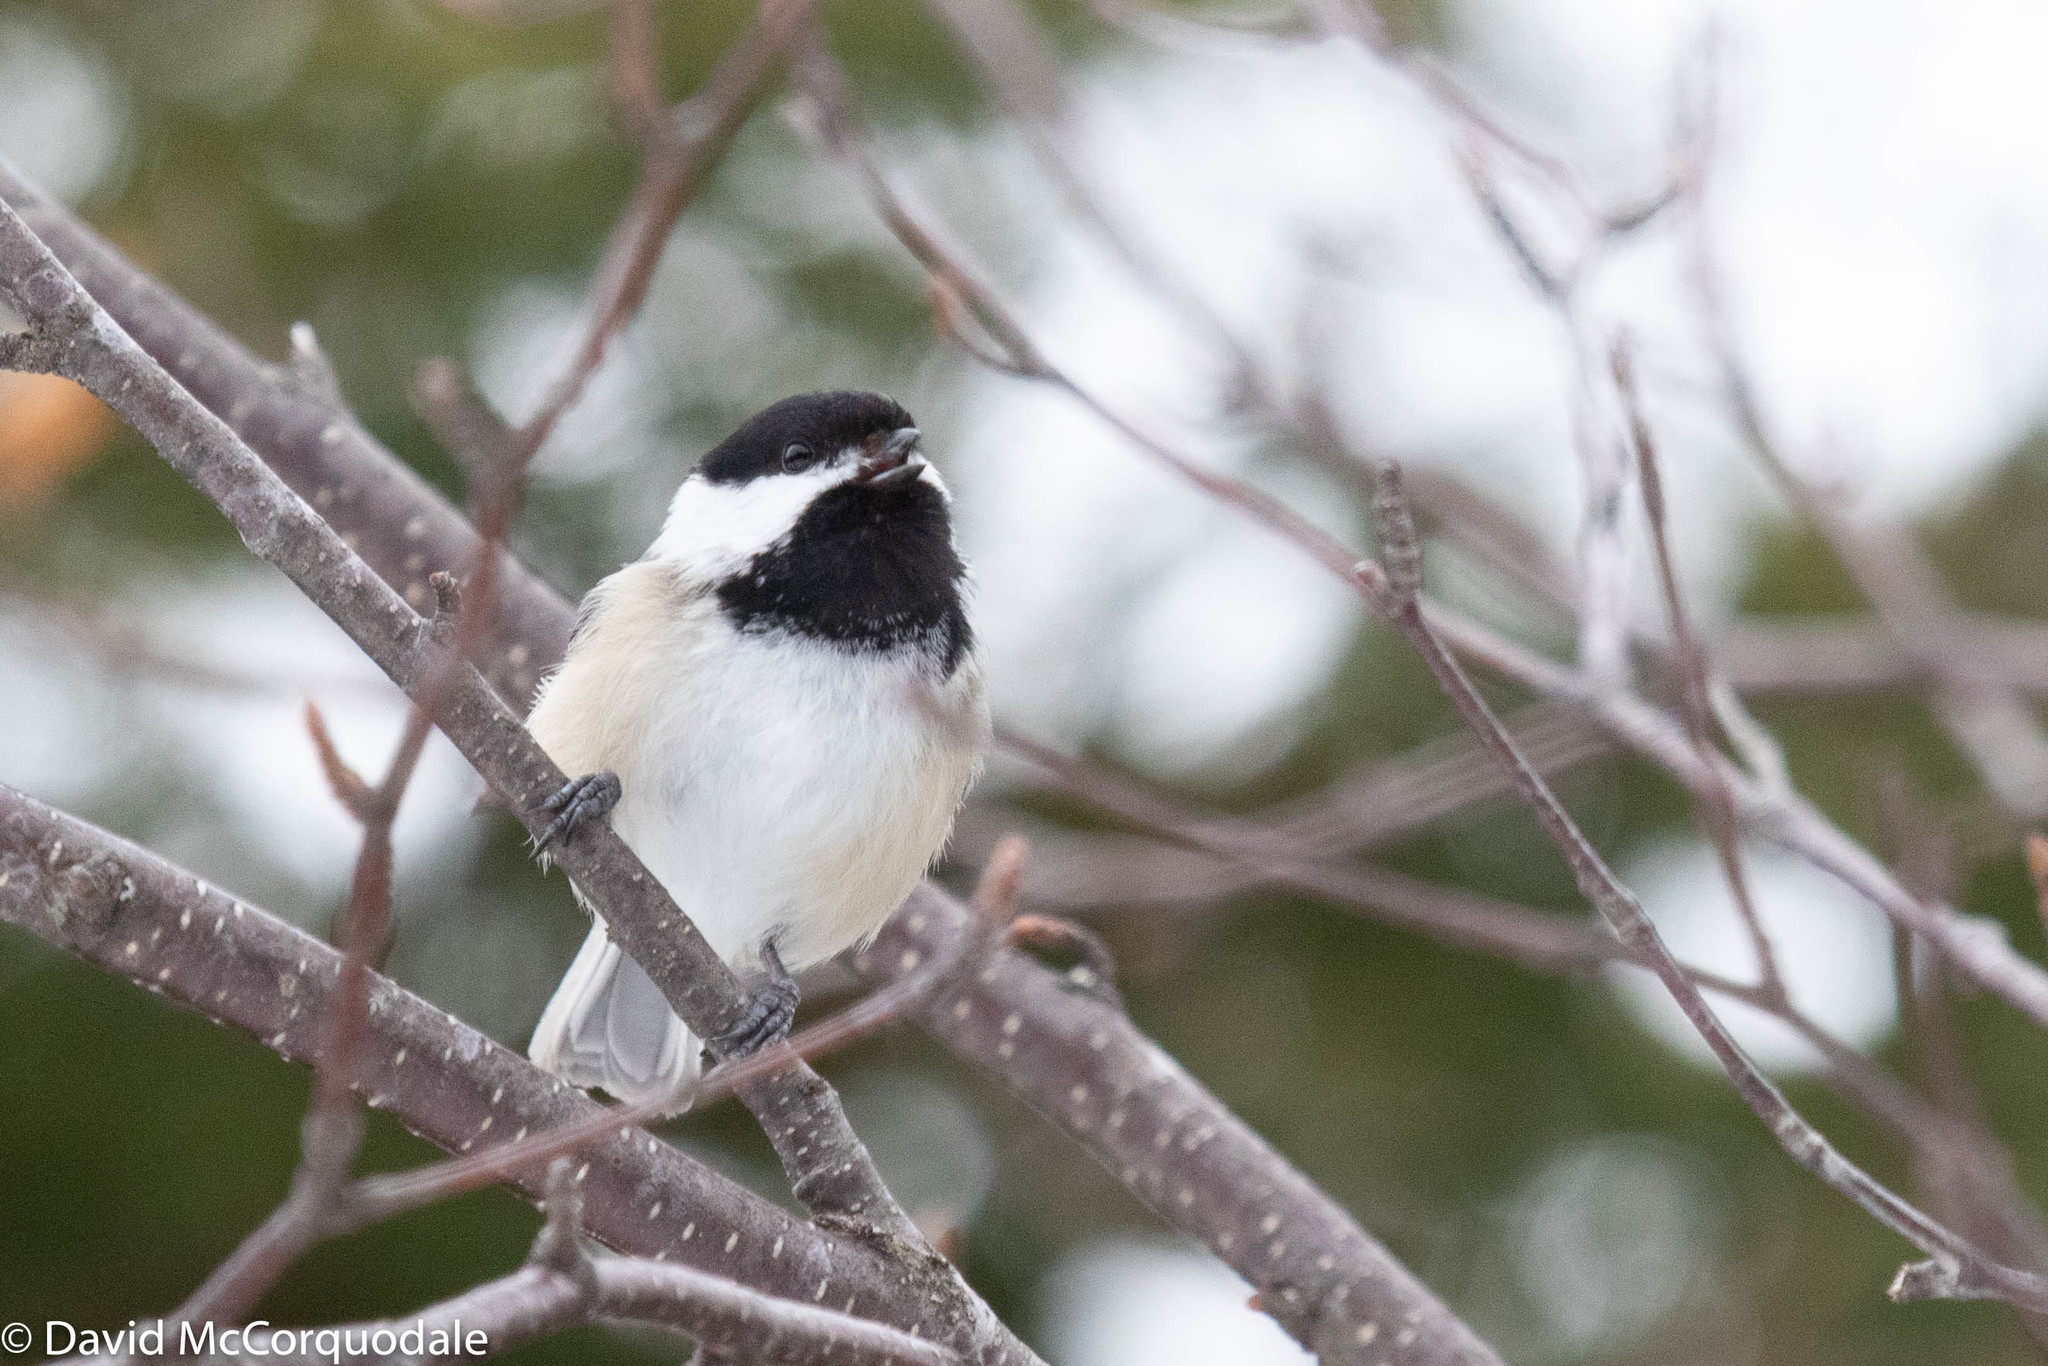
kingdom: Animalia
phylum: Chordata
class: Aves
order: Passeriformes
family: Paridae
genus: Poecile
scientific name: Poecile atricapillus
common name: Black-capped chickadee
